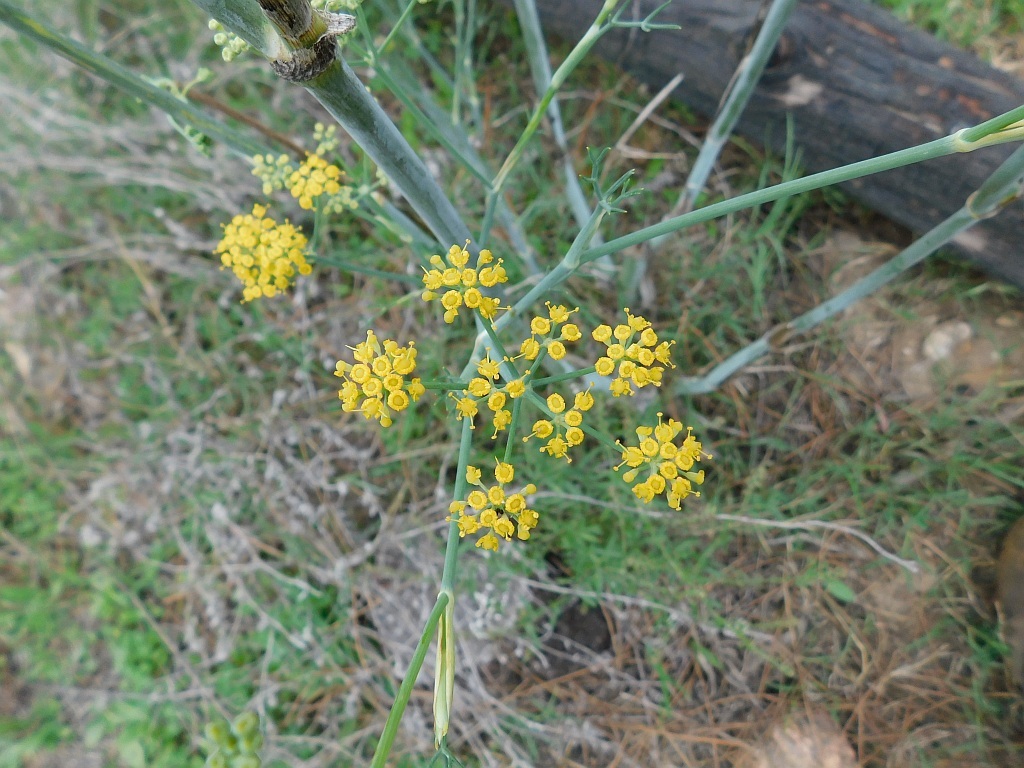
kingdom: Plantae
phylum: Tracheophyta
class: Magnoliopsida
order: Apiales
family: Apiaceae
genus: Foeniculum
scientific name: Foeniculum vulgare
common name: Fennel
